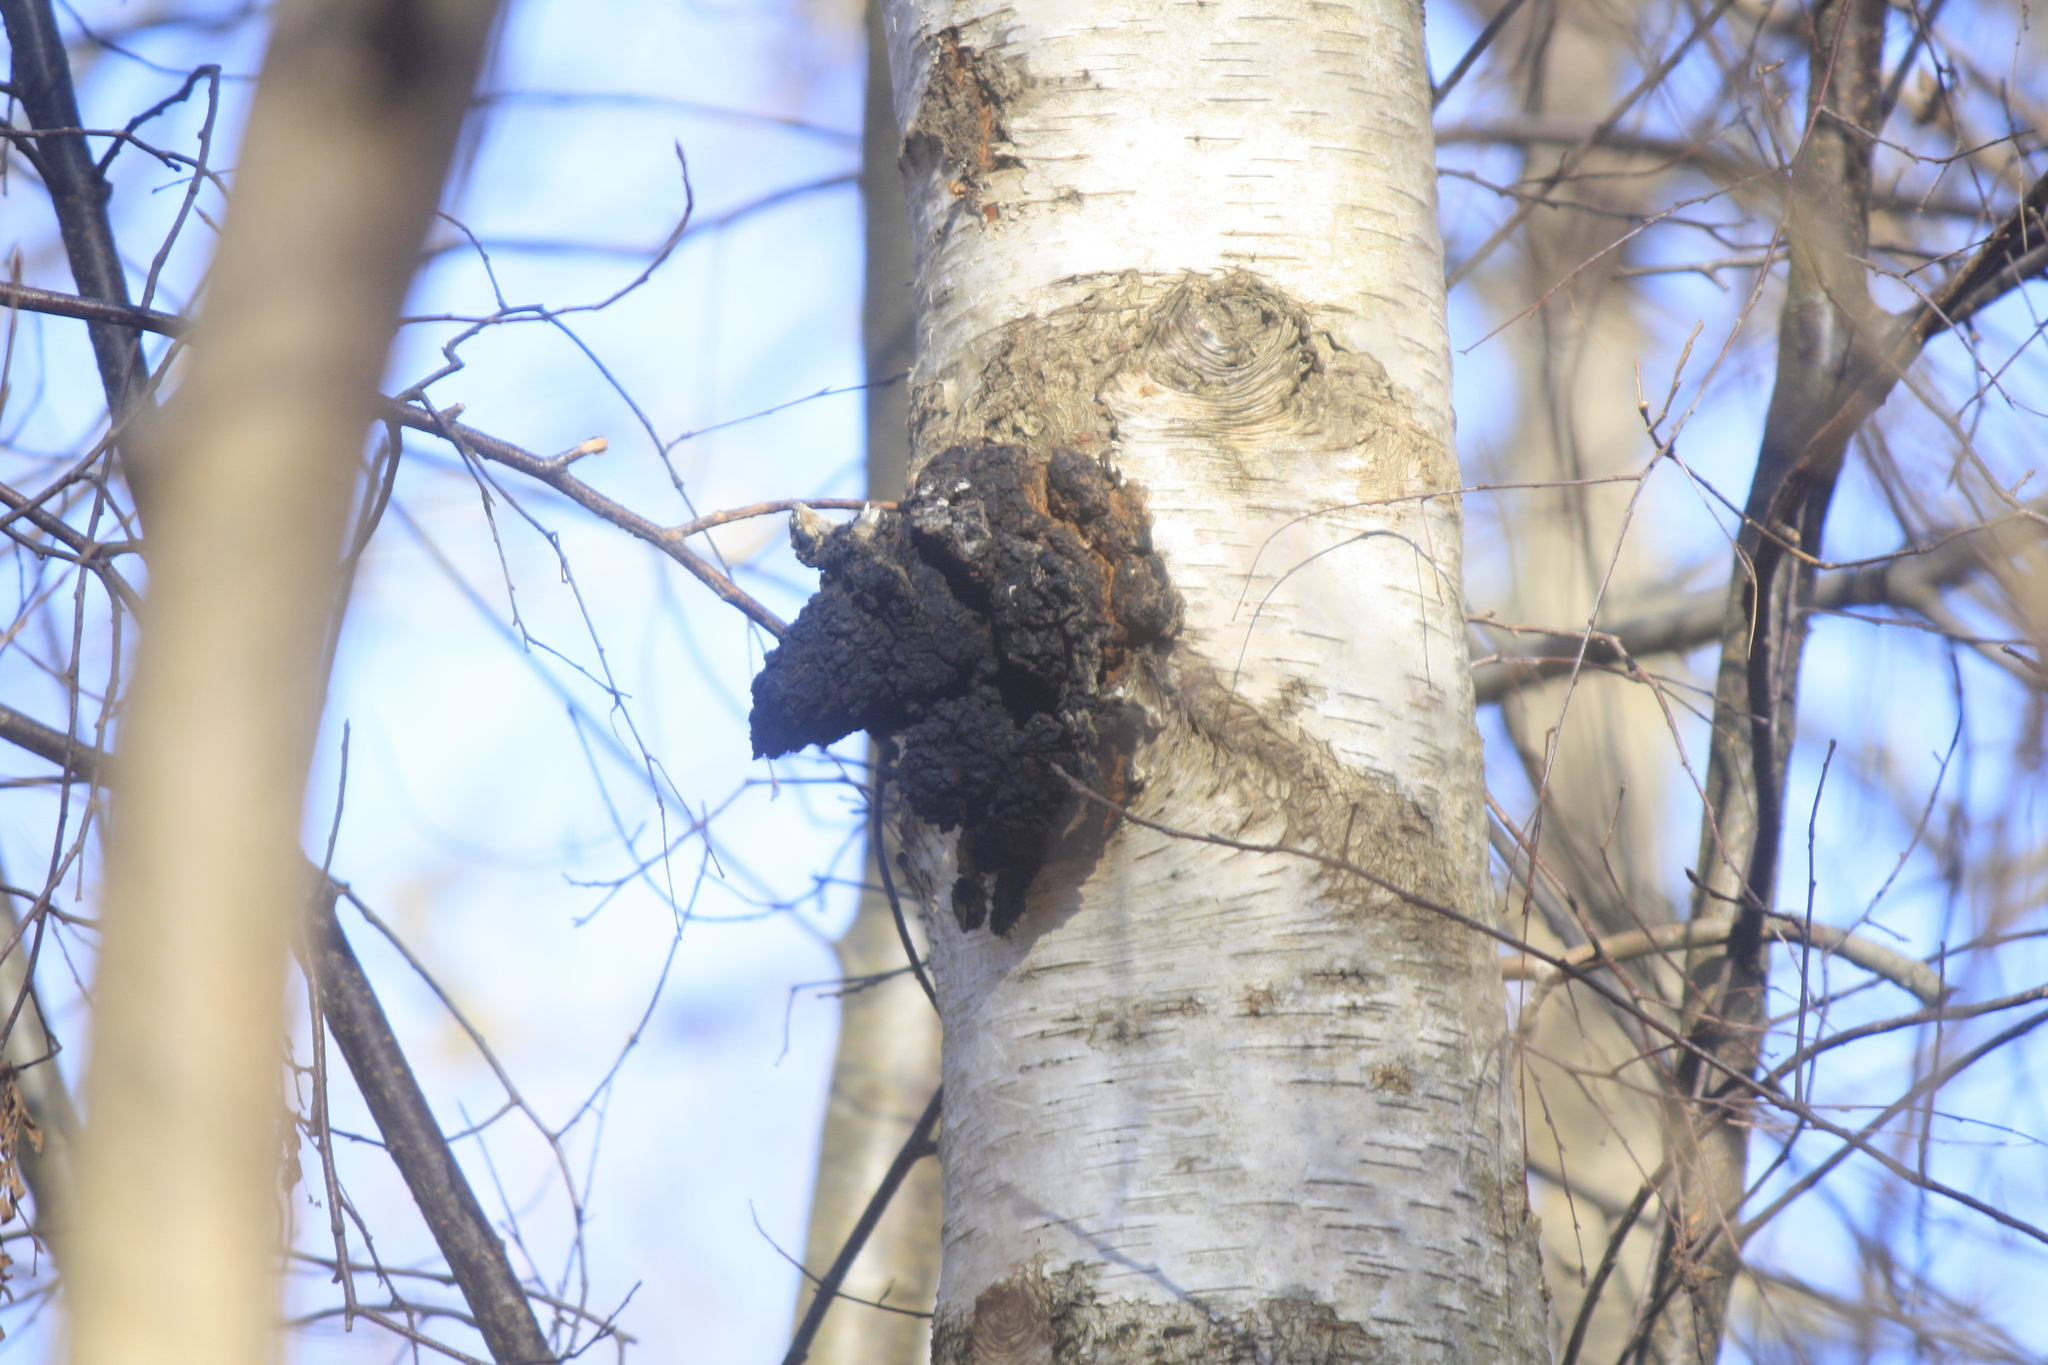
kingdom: Fungi
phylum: Basidiomycota
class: Agaricomycetes
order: Hymenochaetales
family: Hymenochaetaceae
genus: Inonotus
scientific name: Inonotus obliquus
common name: Chaga
